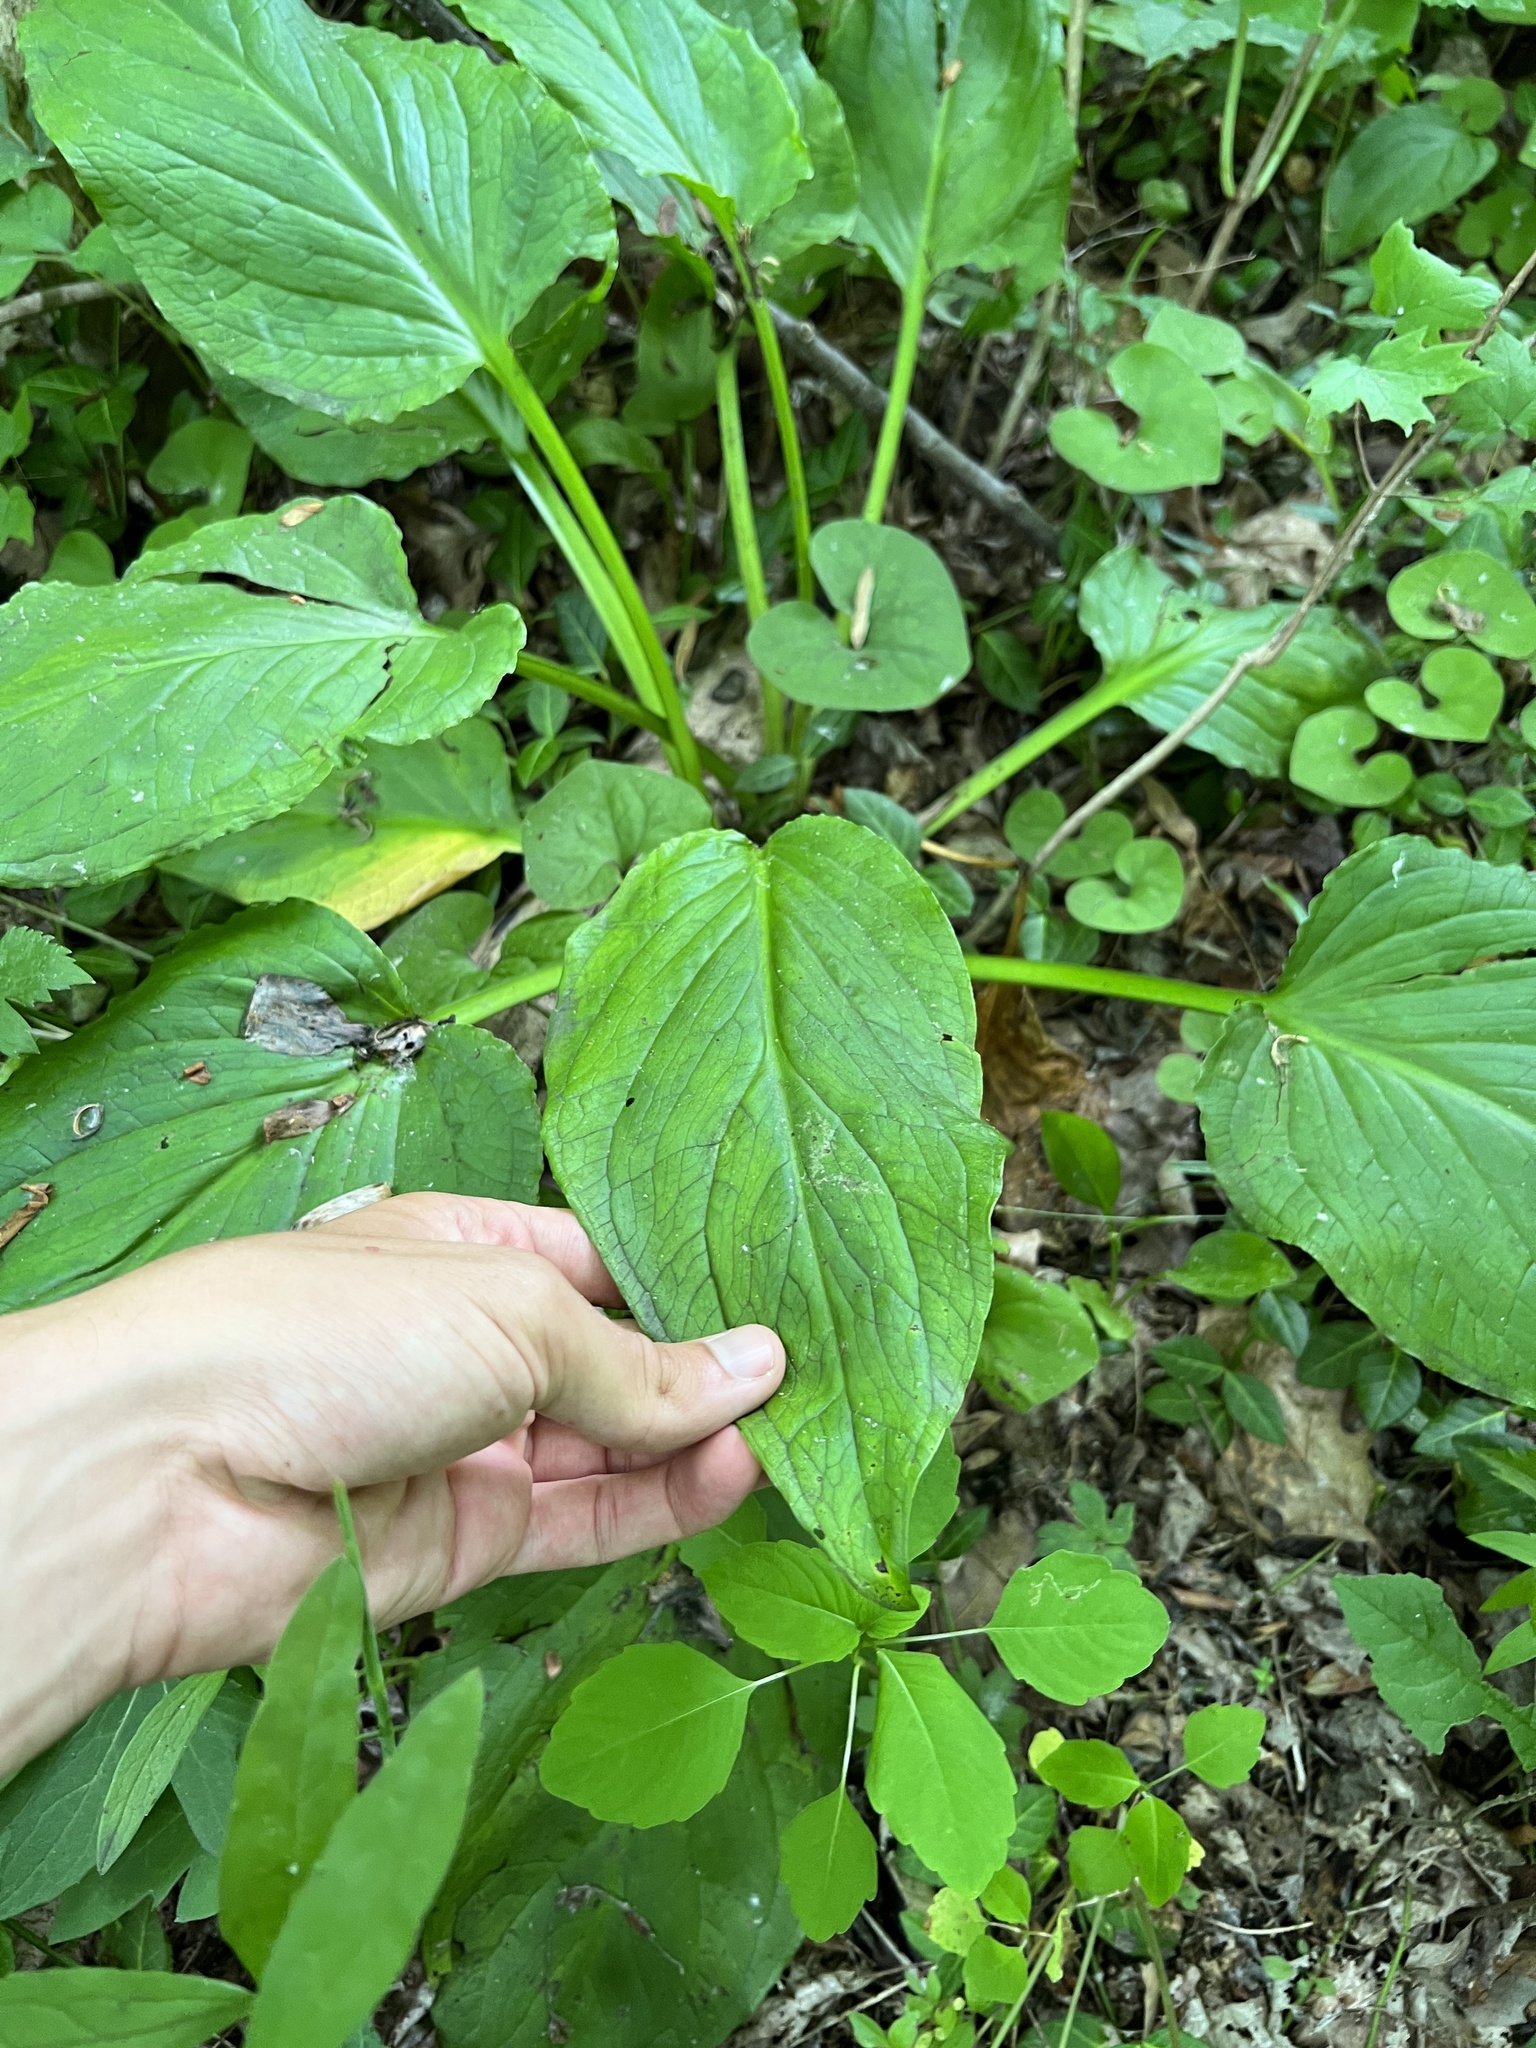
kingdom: Plantae
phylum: Tracheophyta
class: Liliopsida
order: Alismatales
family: Araceae
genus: Symplocarpus
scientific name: Symplocarpus foetidus
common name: Eastern skunk cabbage
